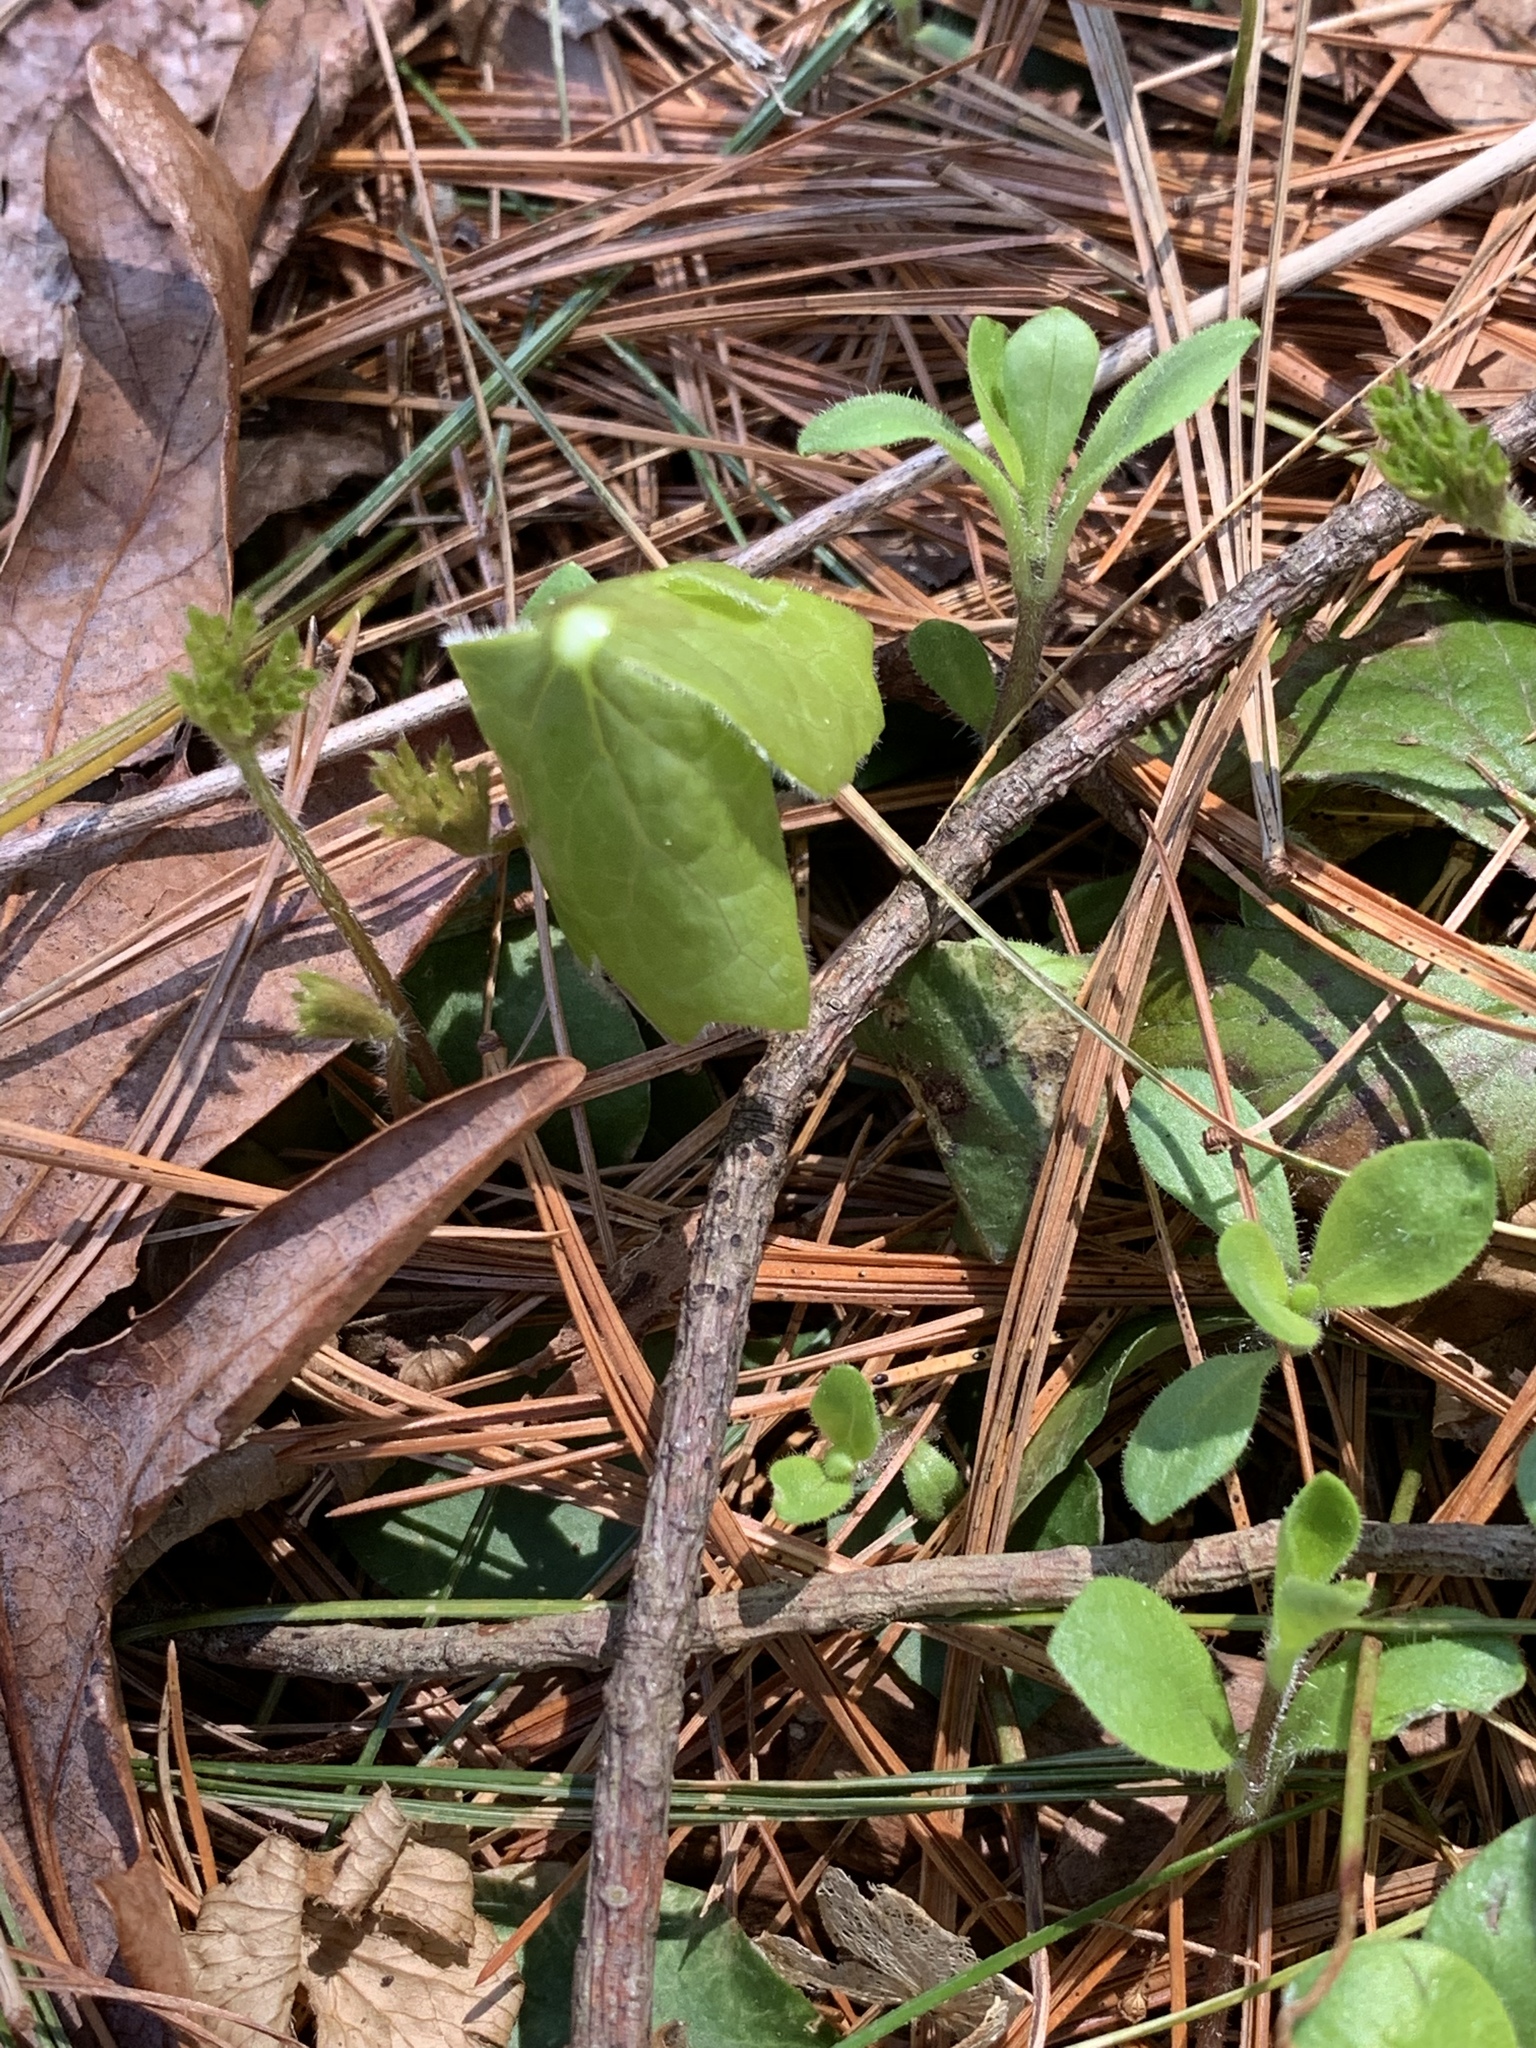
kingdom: Plantae
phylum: Tracheophyta
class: Magnoliopsida
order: Ranunculales
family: Berberidaceae
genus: Podophyllum
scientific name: Podophyllum peltatum
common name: Wild mandrake
